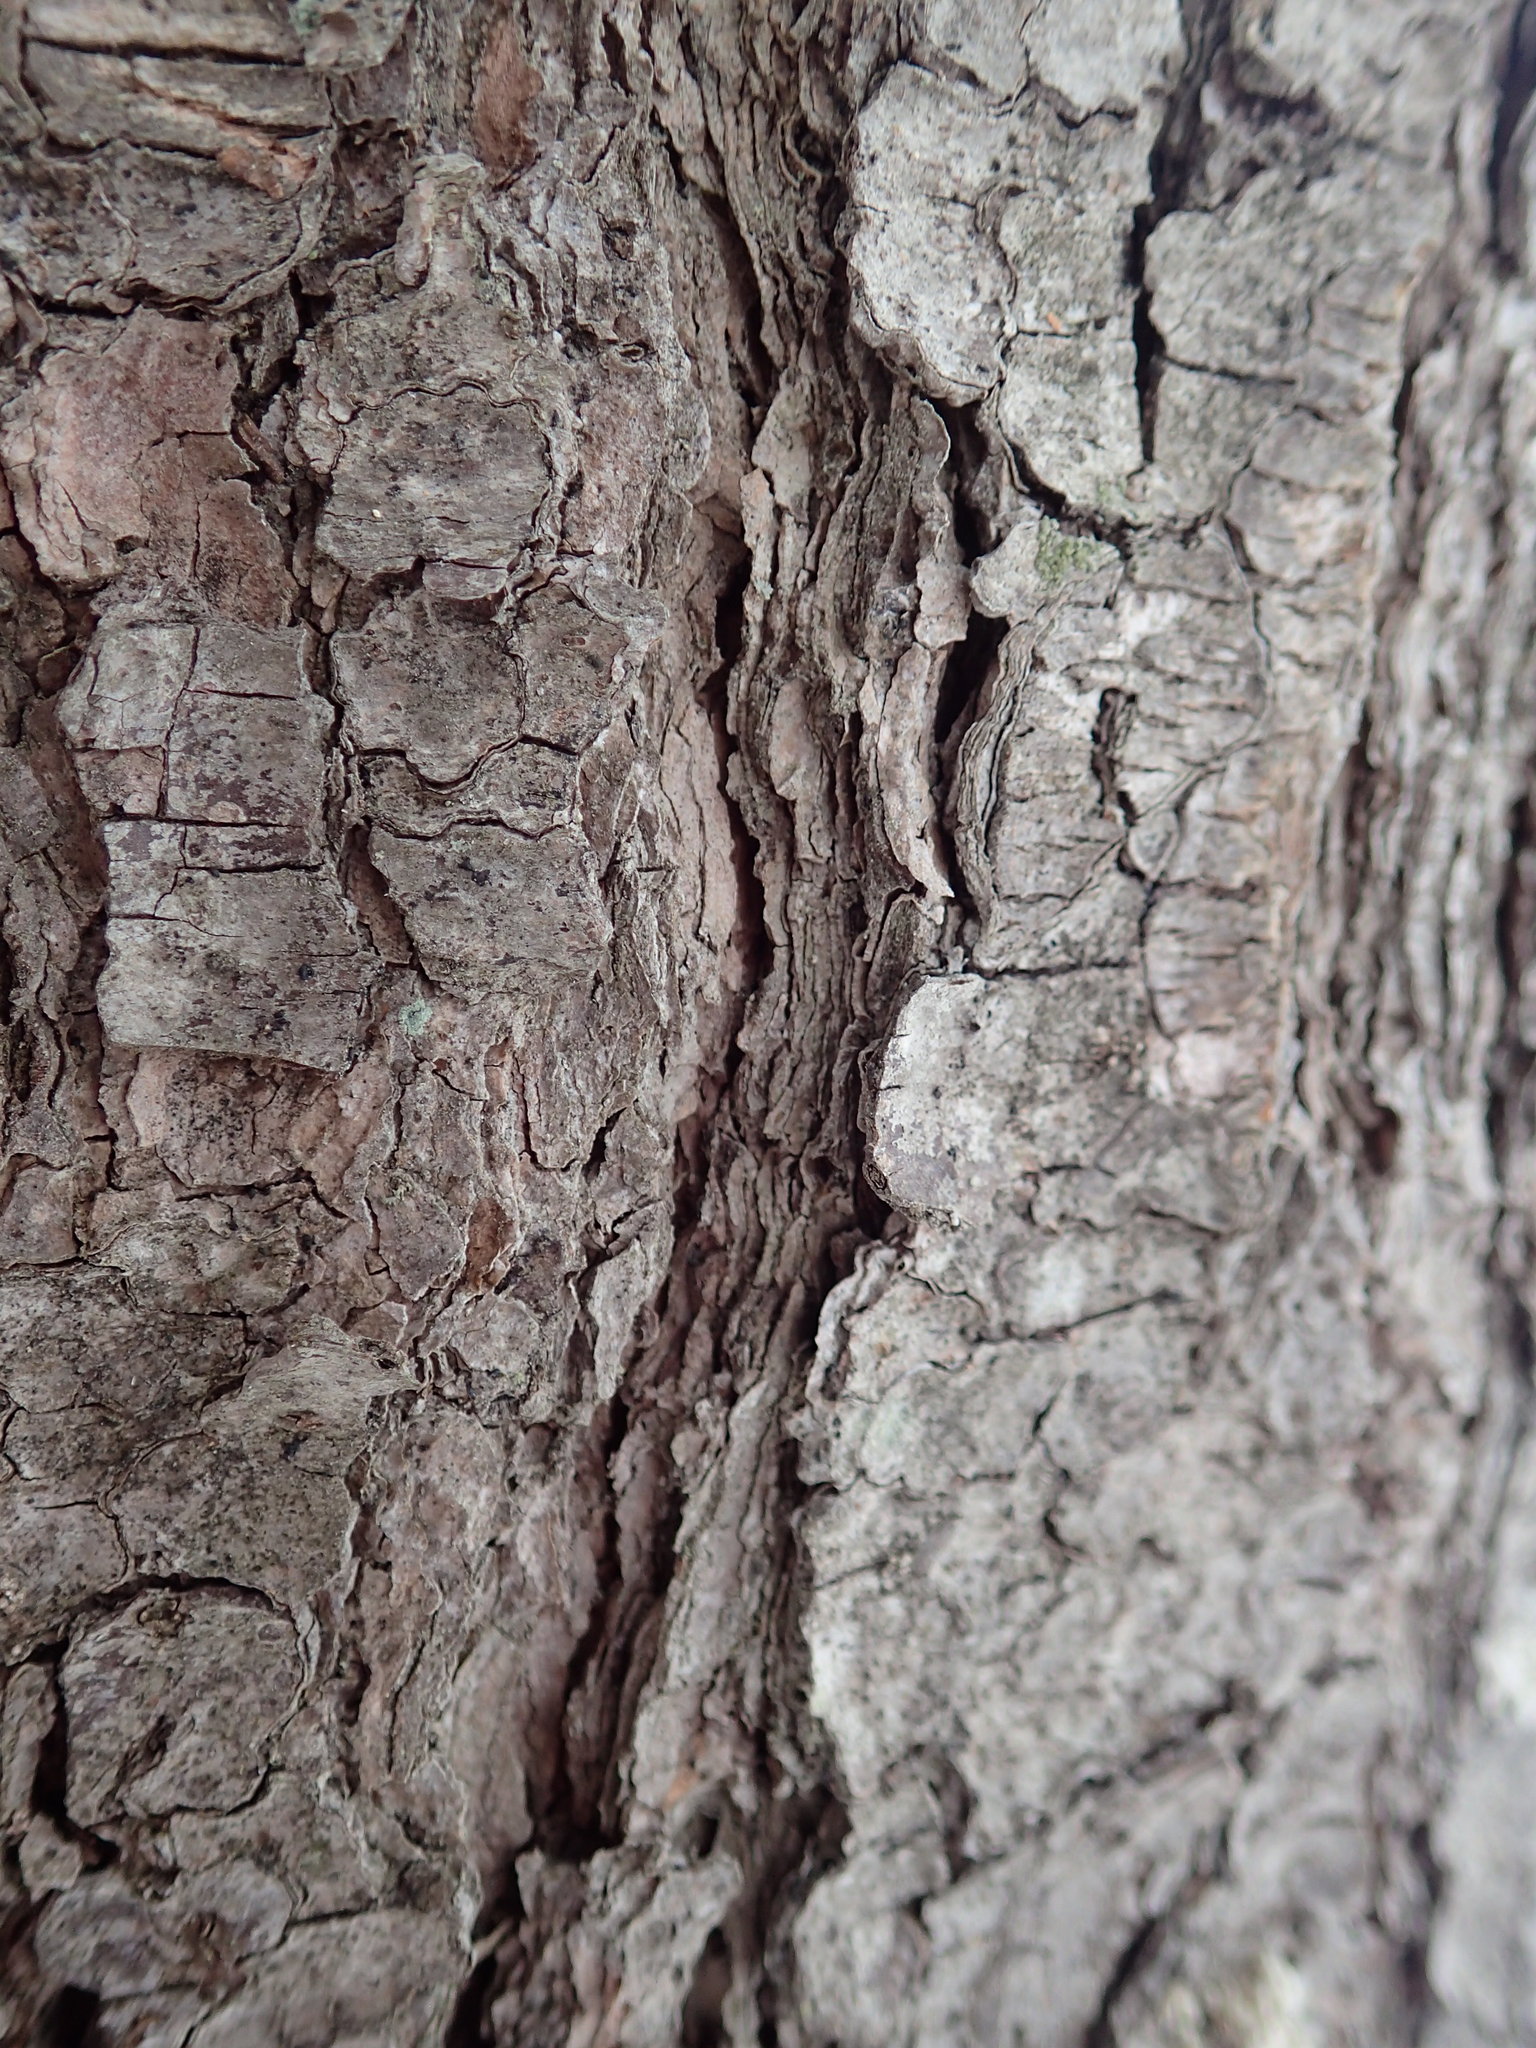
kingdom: Plantae
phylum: Tracheophyta
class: Pinopsida
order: Pinales
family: Pinaceae
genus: Pinus
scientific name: Pinus strobus
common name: Weymouth pine
